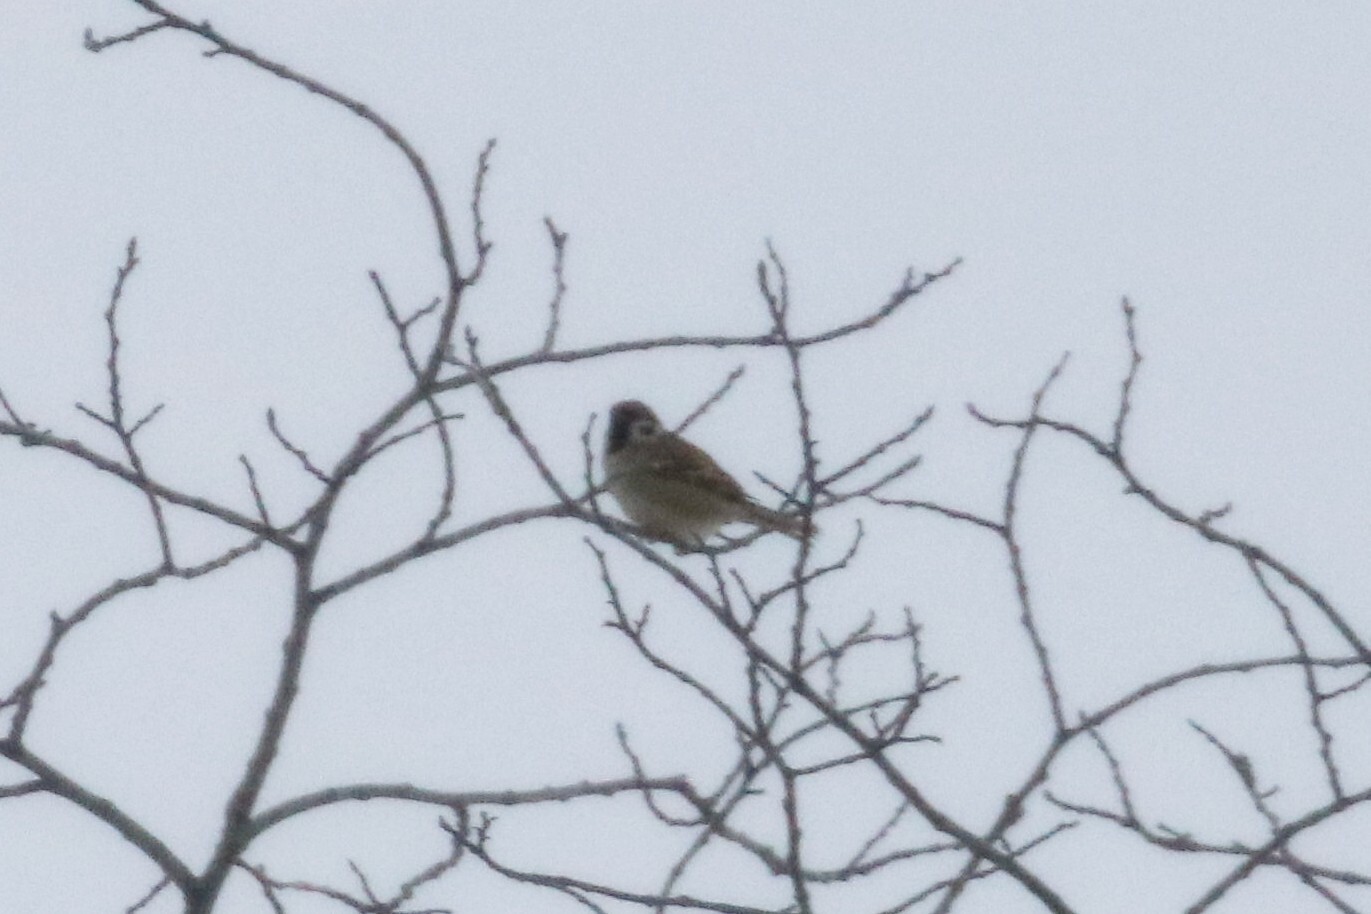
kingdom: Animalia
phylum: Chordata
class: Aves
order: Passeriformes
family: Passeridae
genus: Passer
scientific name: Passer montanus
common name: Eurasian tree sparrow
